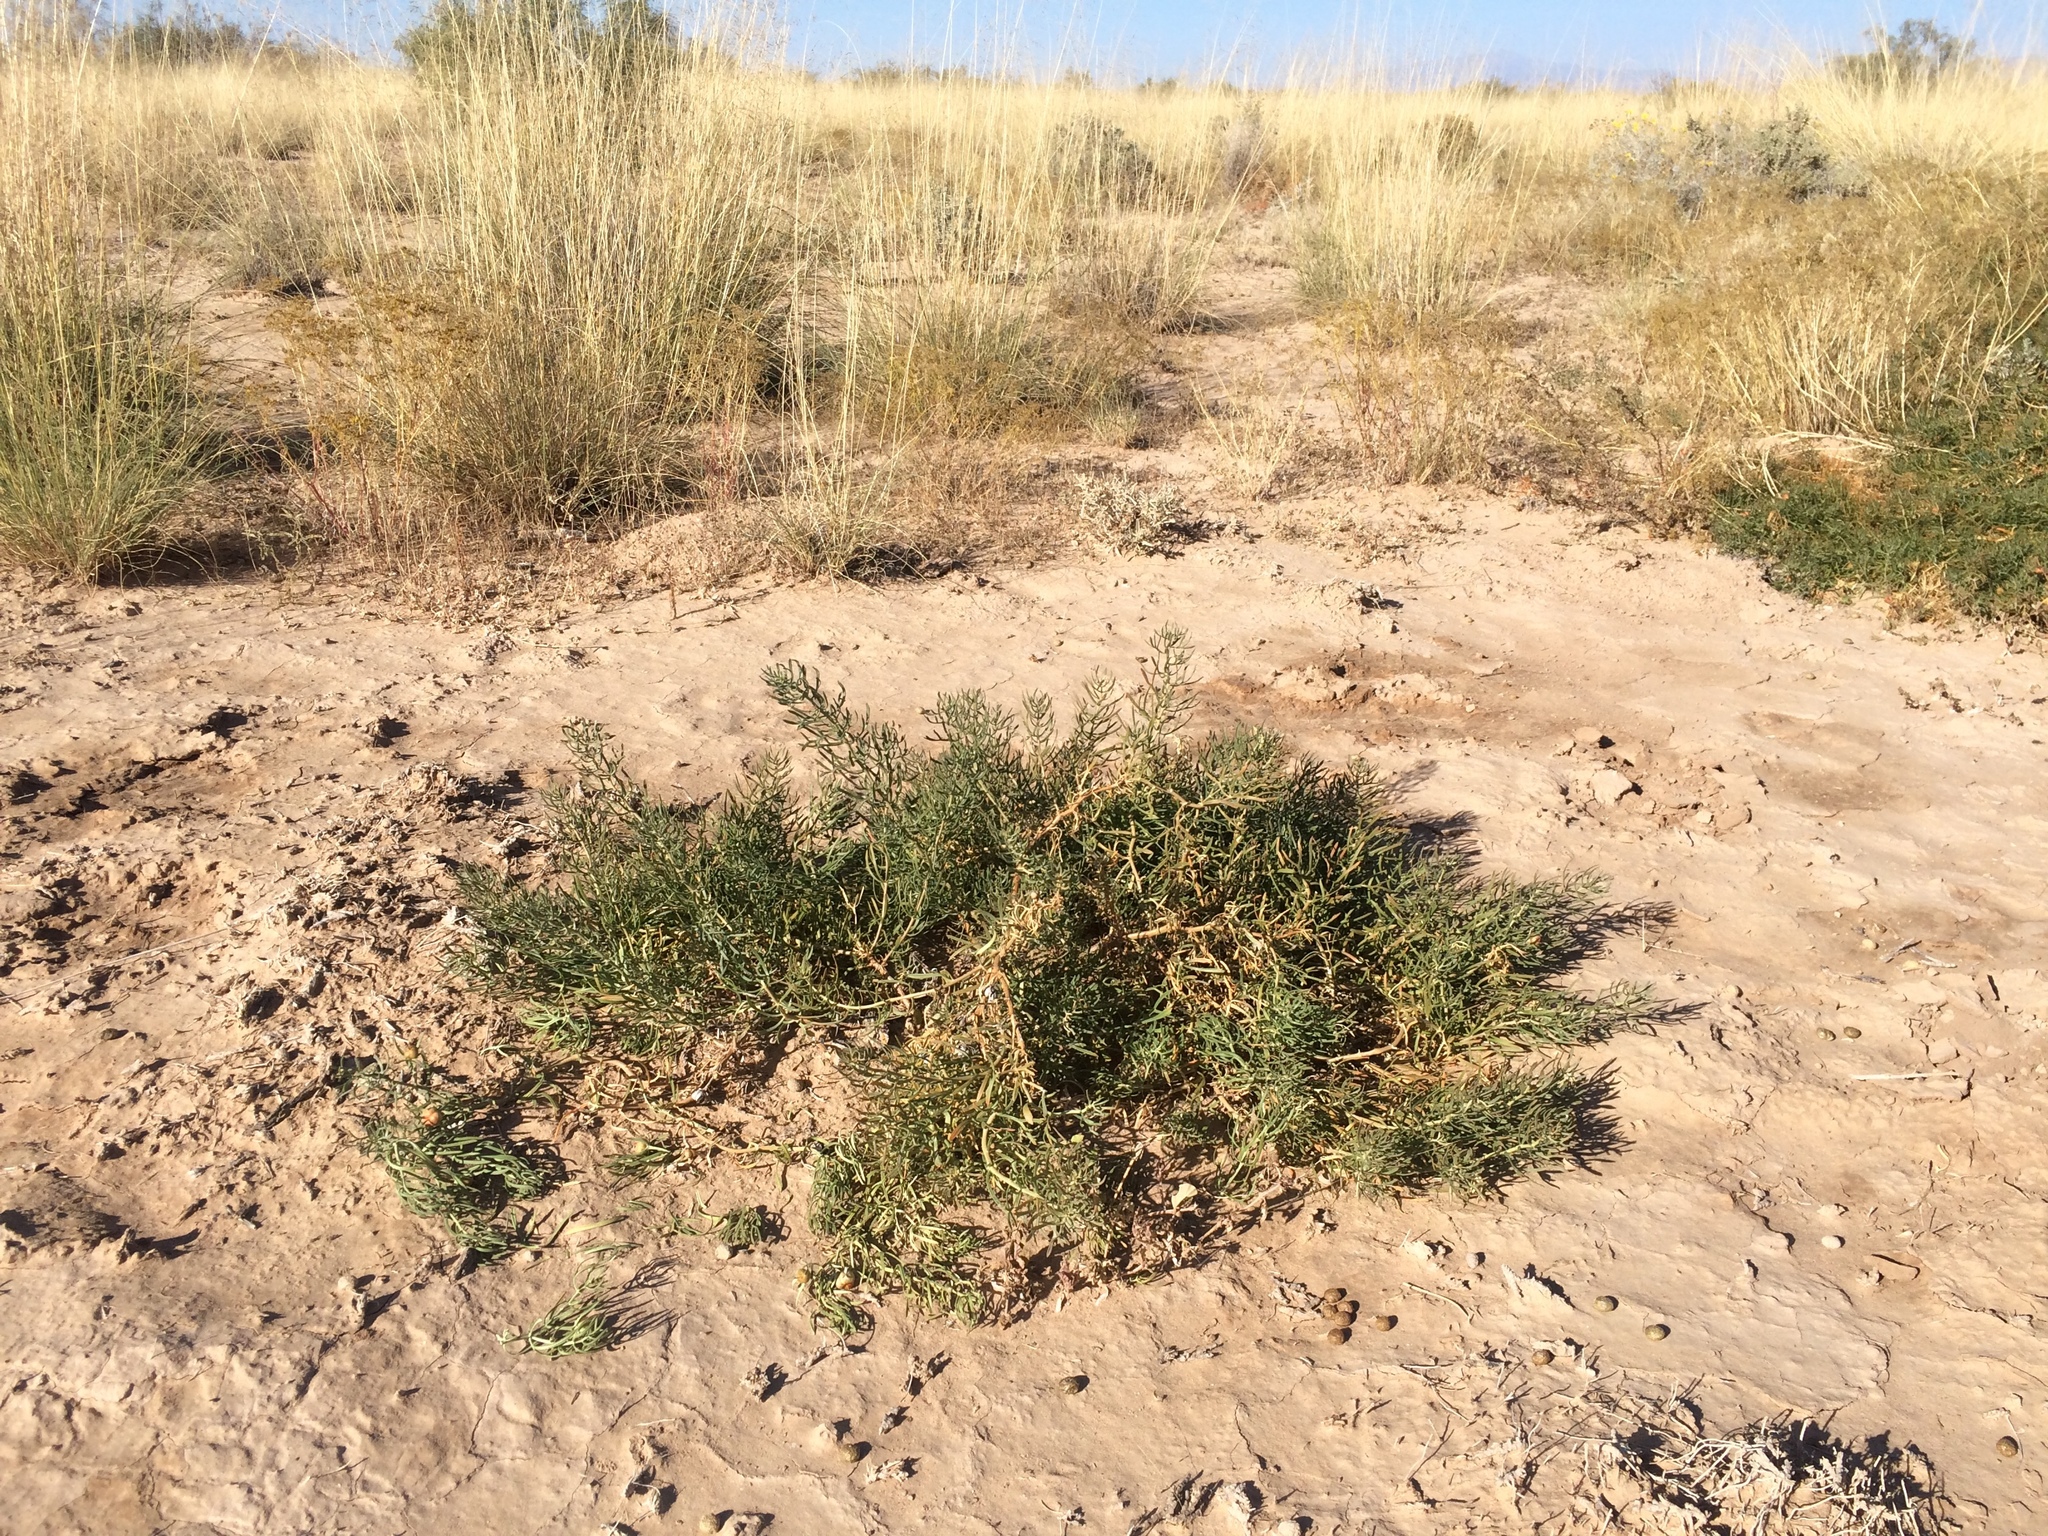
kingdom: Plantae
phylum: Tracheophyta
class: Magnoliopsida
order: Sapindales
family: Tetradiclidaceae
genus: Peganum
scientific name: Peganum harmala
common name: Harmal peganum
